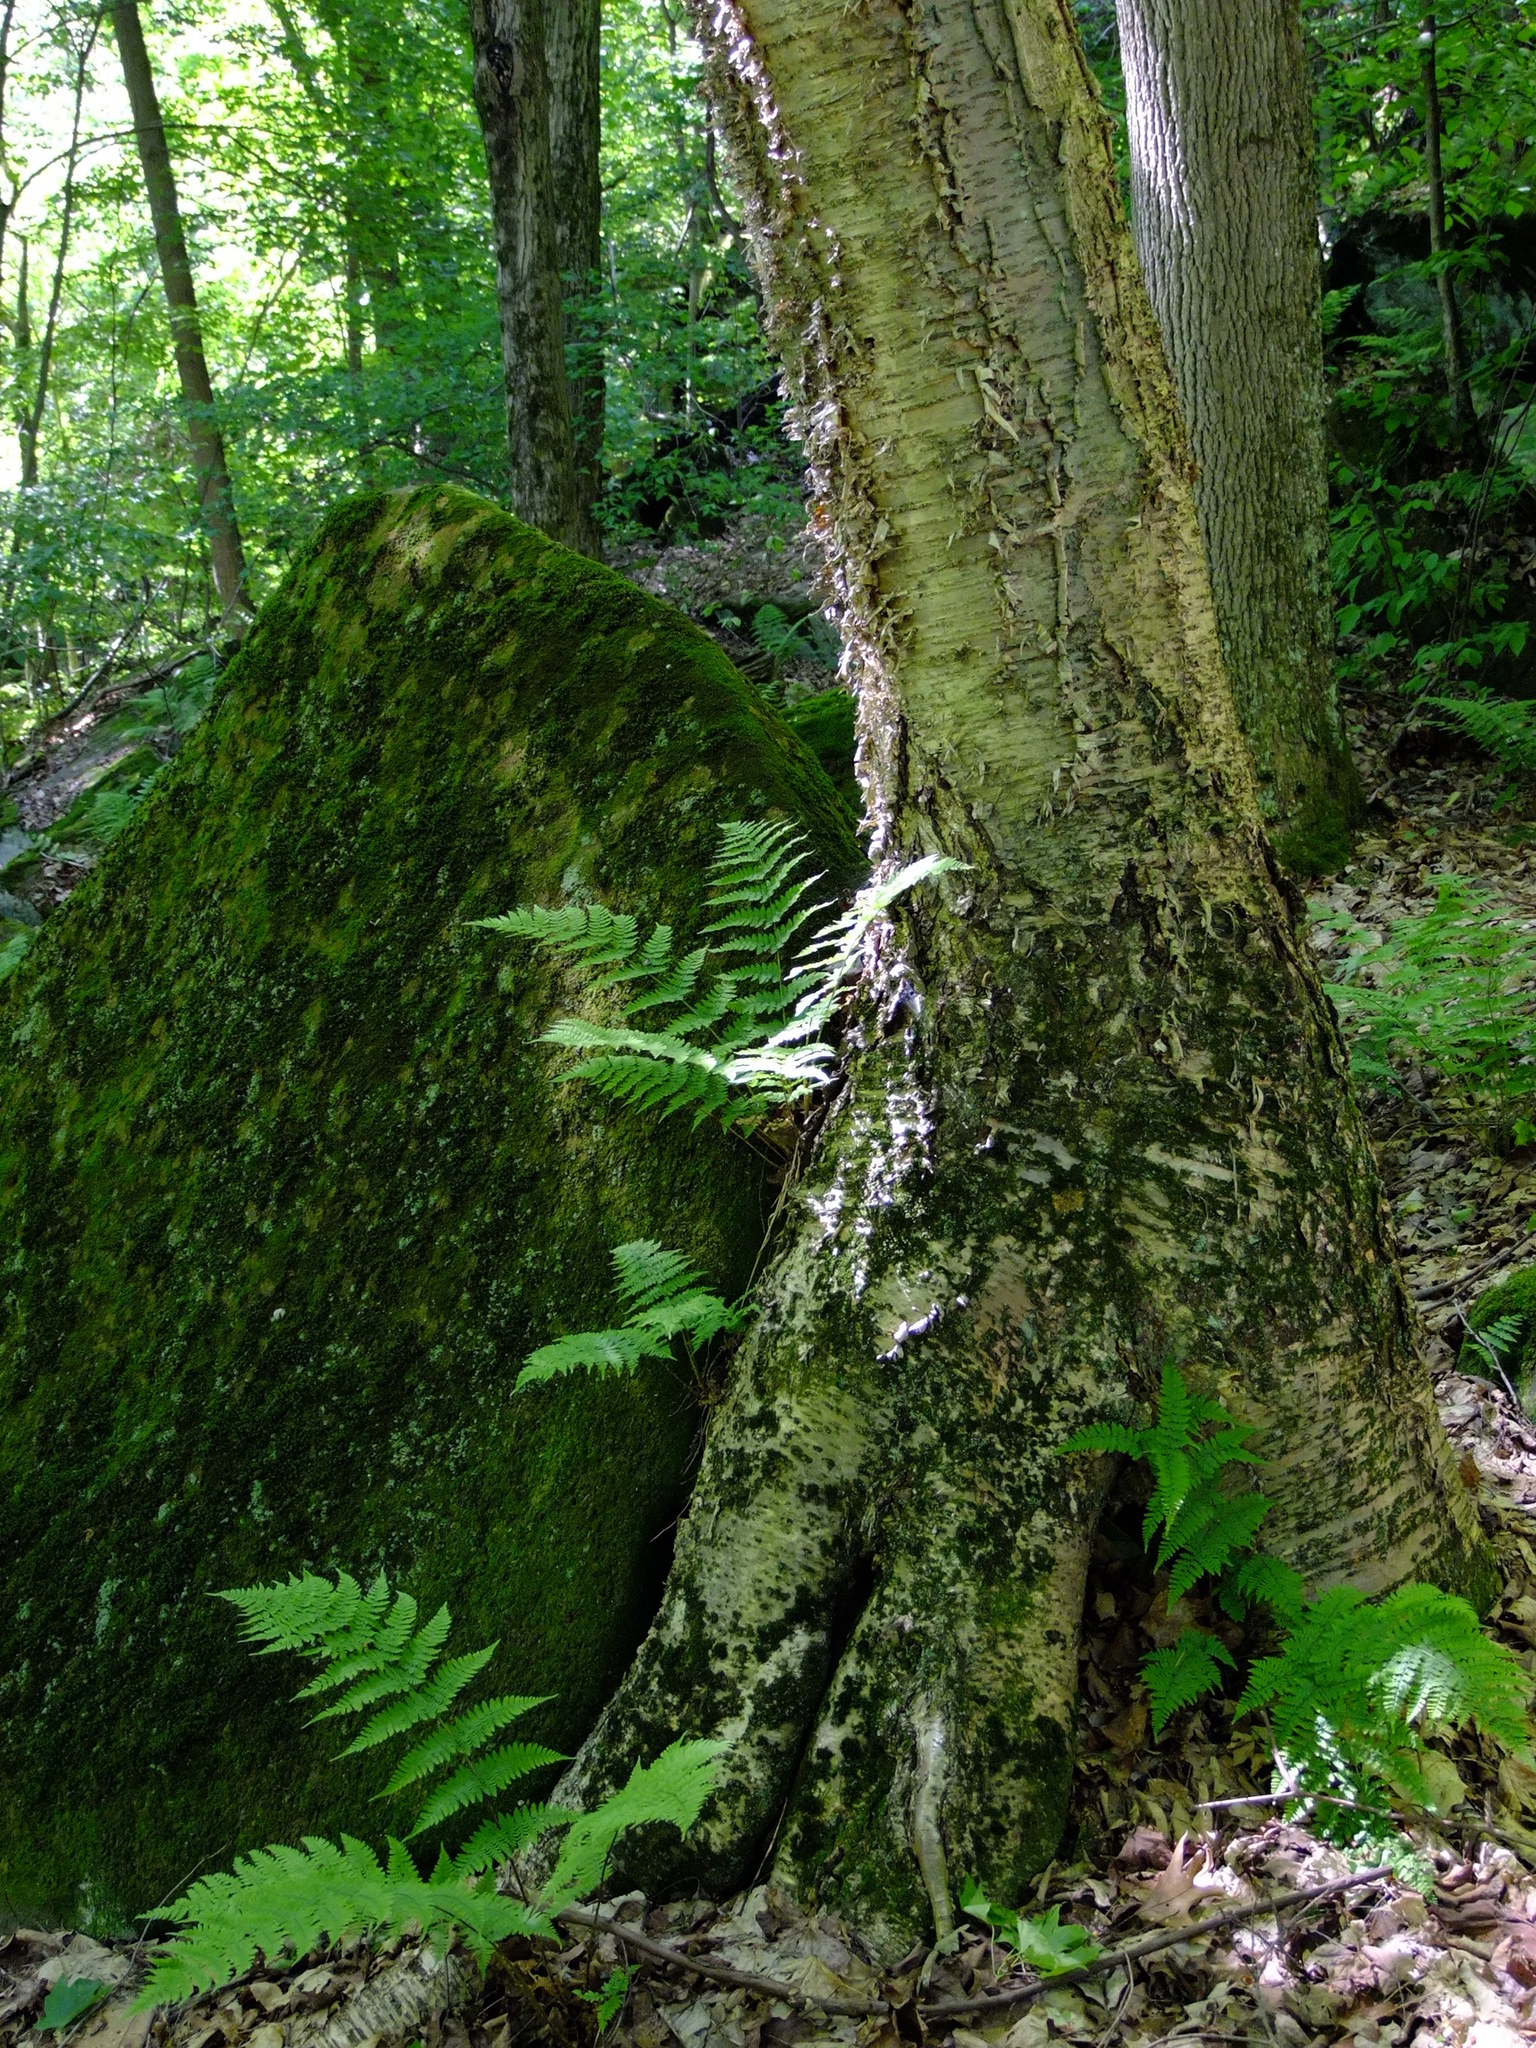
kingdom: Plantae
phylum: Tracheophyta
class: Magnoliopsida
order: Fagales
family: Betulaceae
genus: Betula
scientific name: Betula alleghaniensis
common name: Yellow birch
